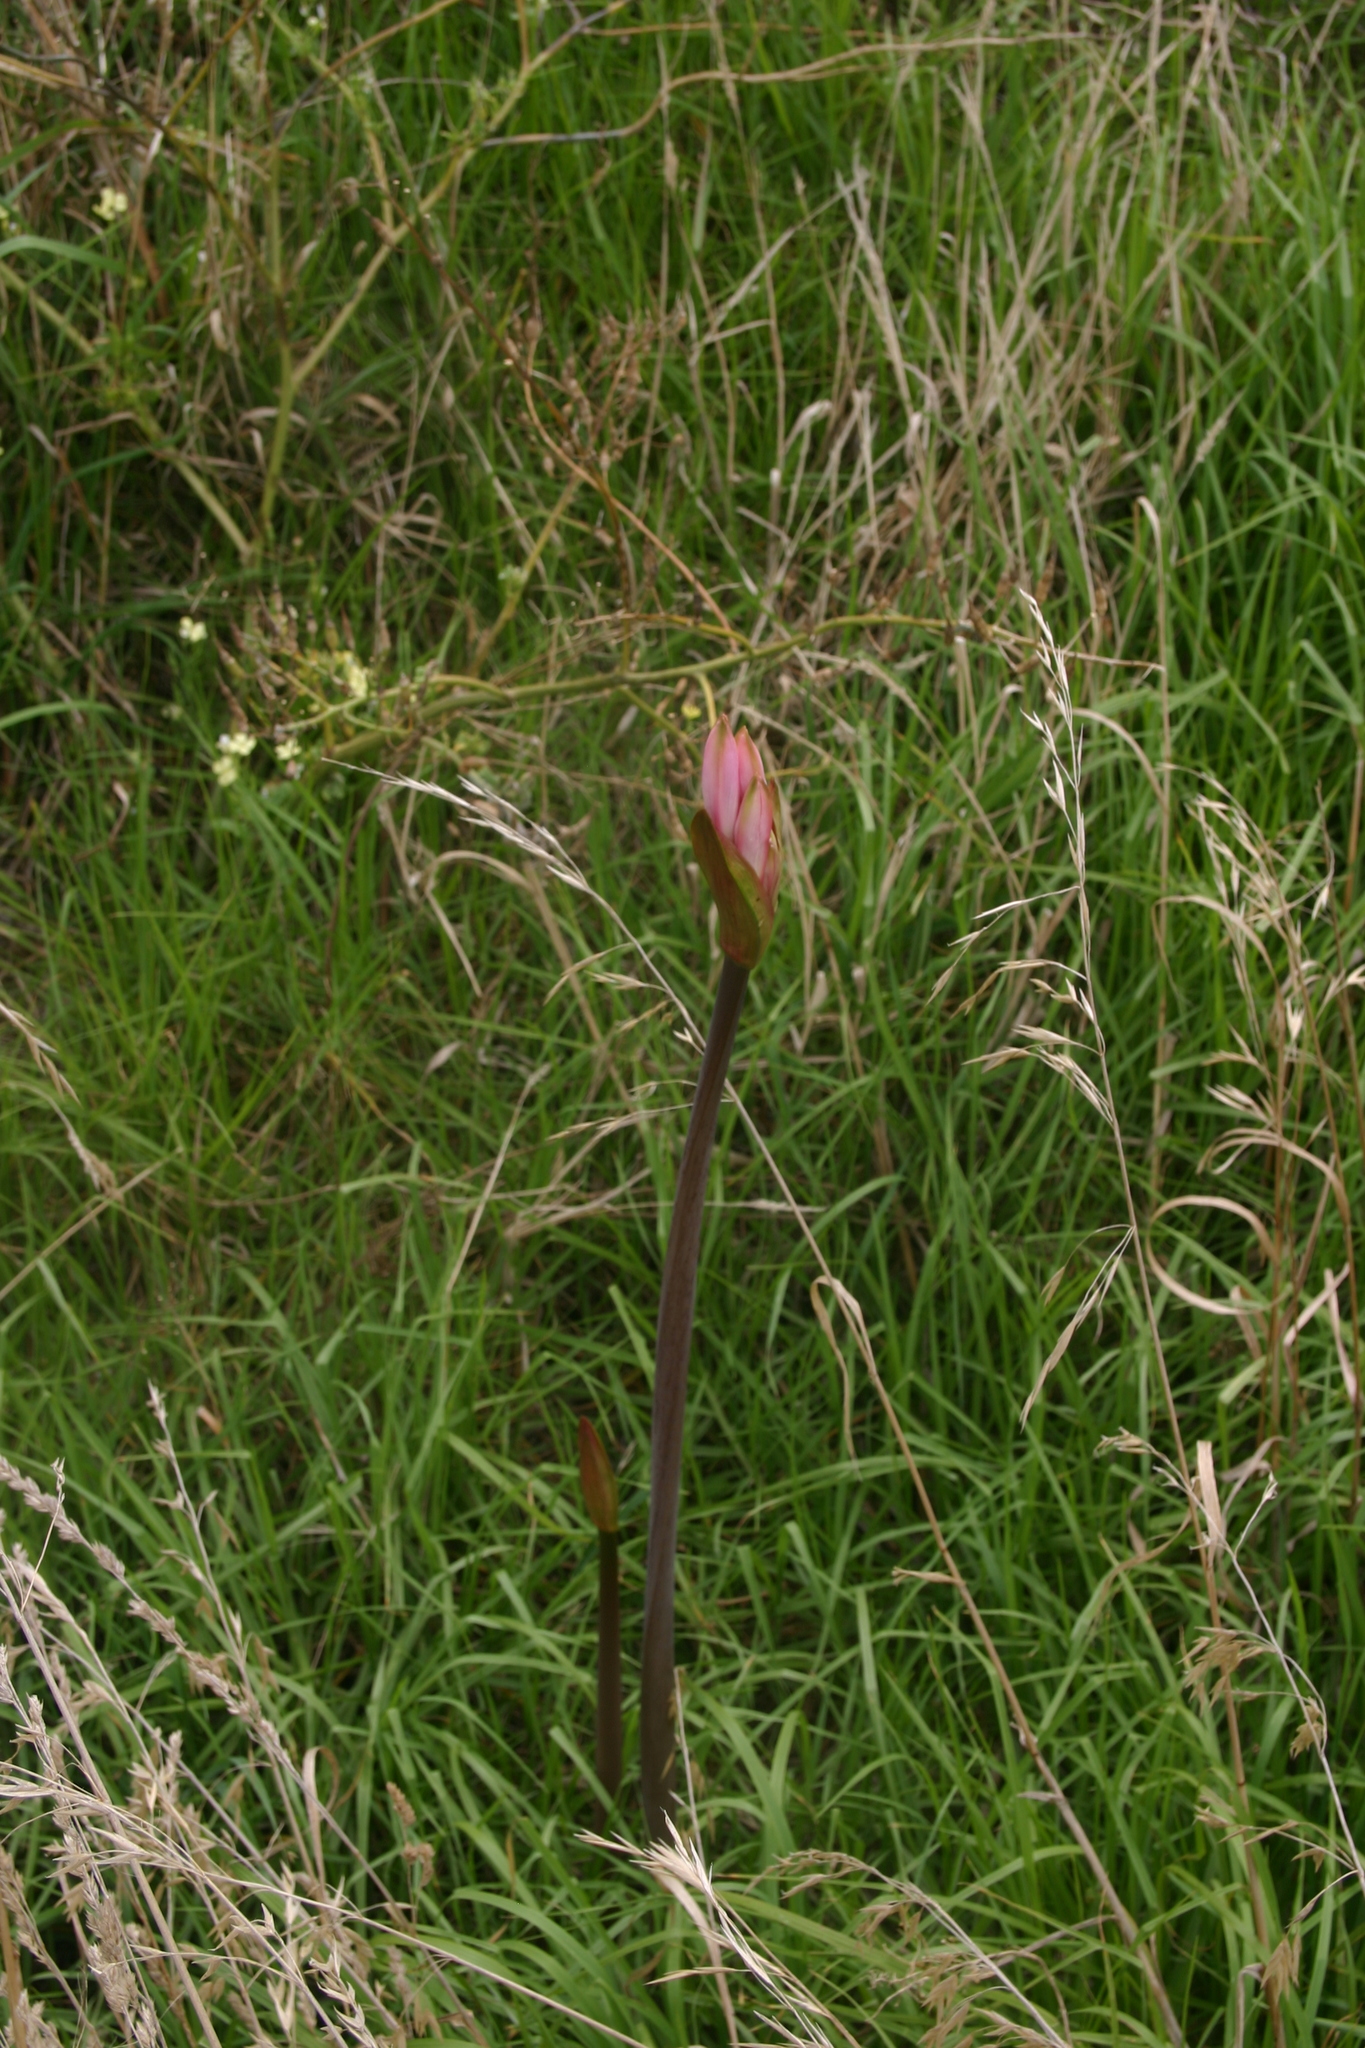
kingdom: Plantae
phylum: Tracheophyta
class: Liliopsida
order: Asparagales
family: Amaryllidaceae
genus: Amaryllis
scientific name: Amaryllis belladonna
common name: Jersey lily
